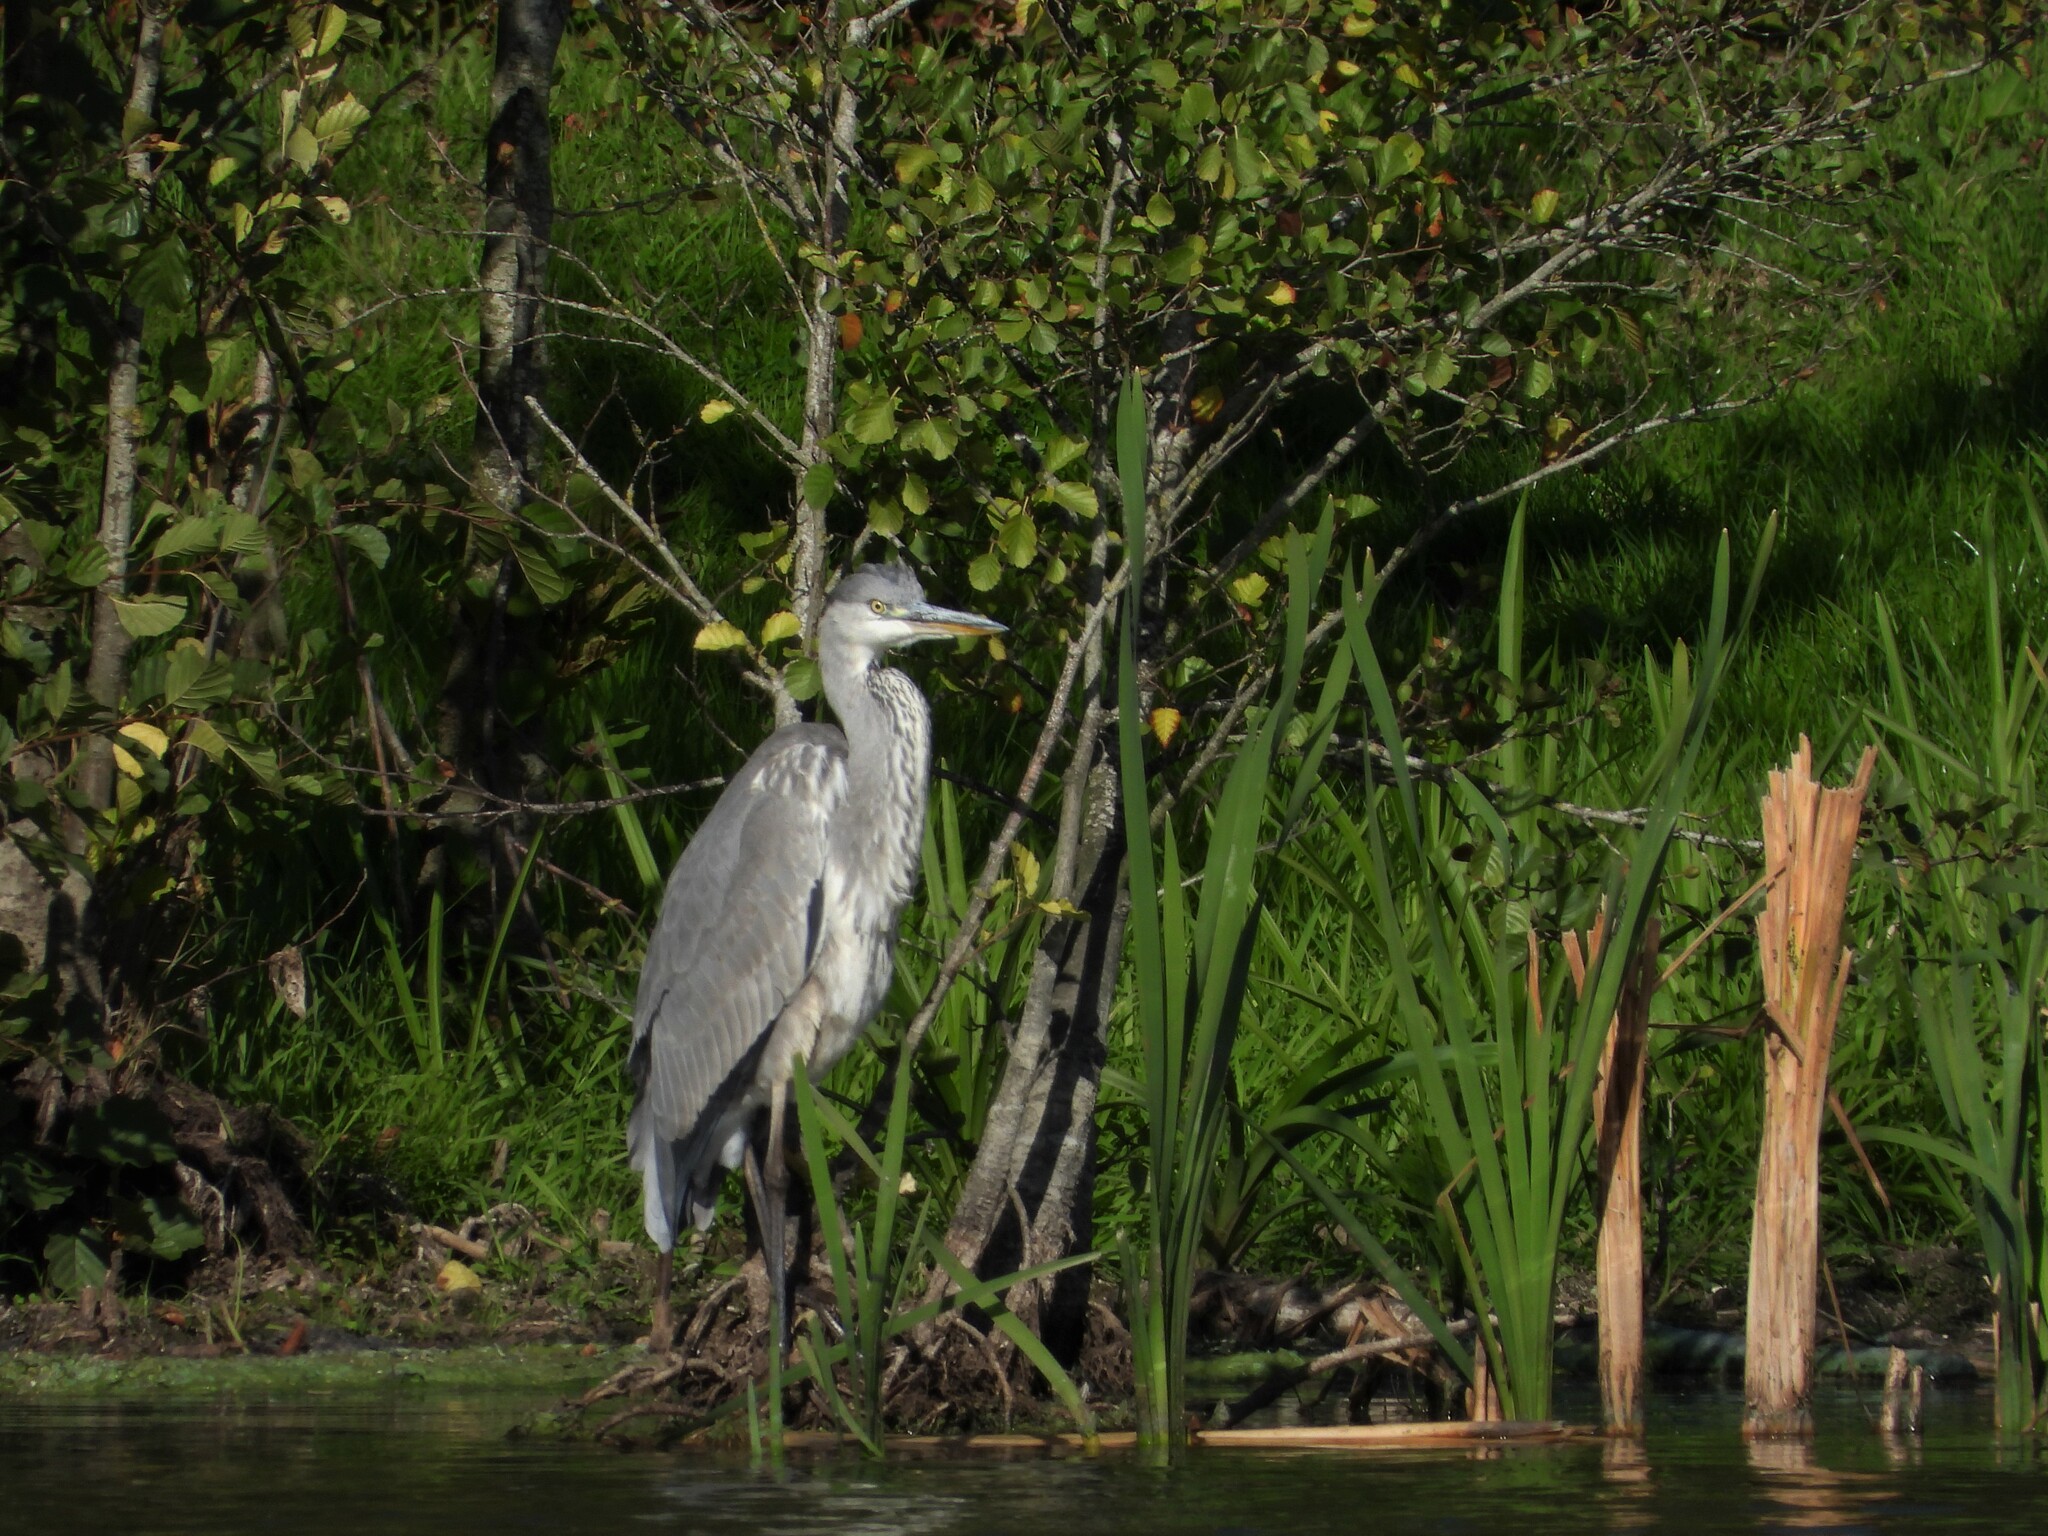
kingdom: Animalia
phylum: Chordata
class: Aves
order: Pelecaniformes
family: Ardeidae
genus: Ardea
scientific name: Ardea cinerea
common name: Grey heron
